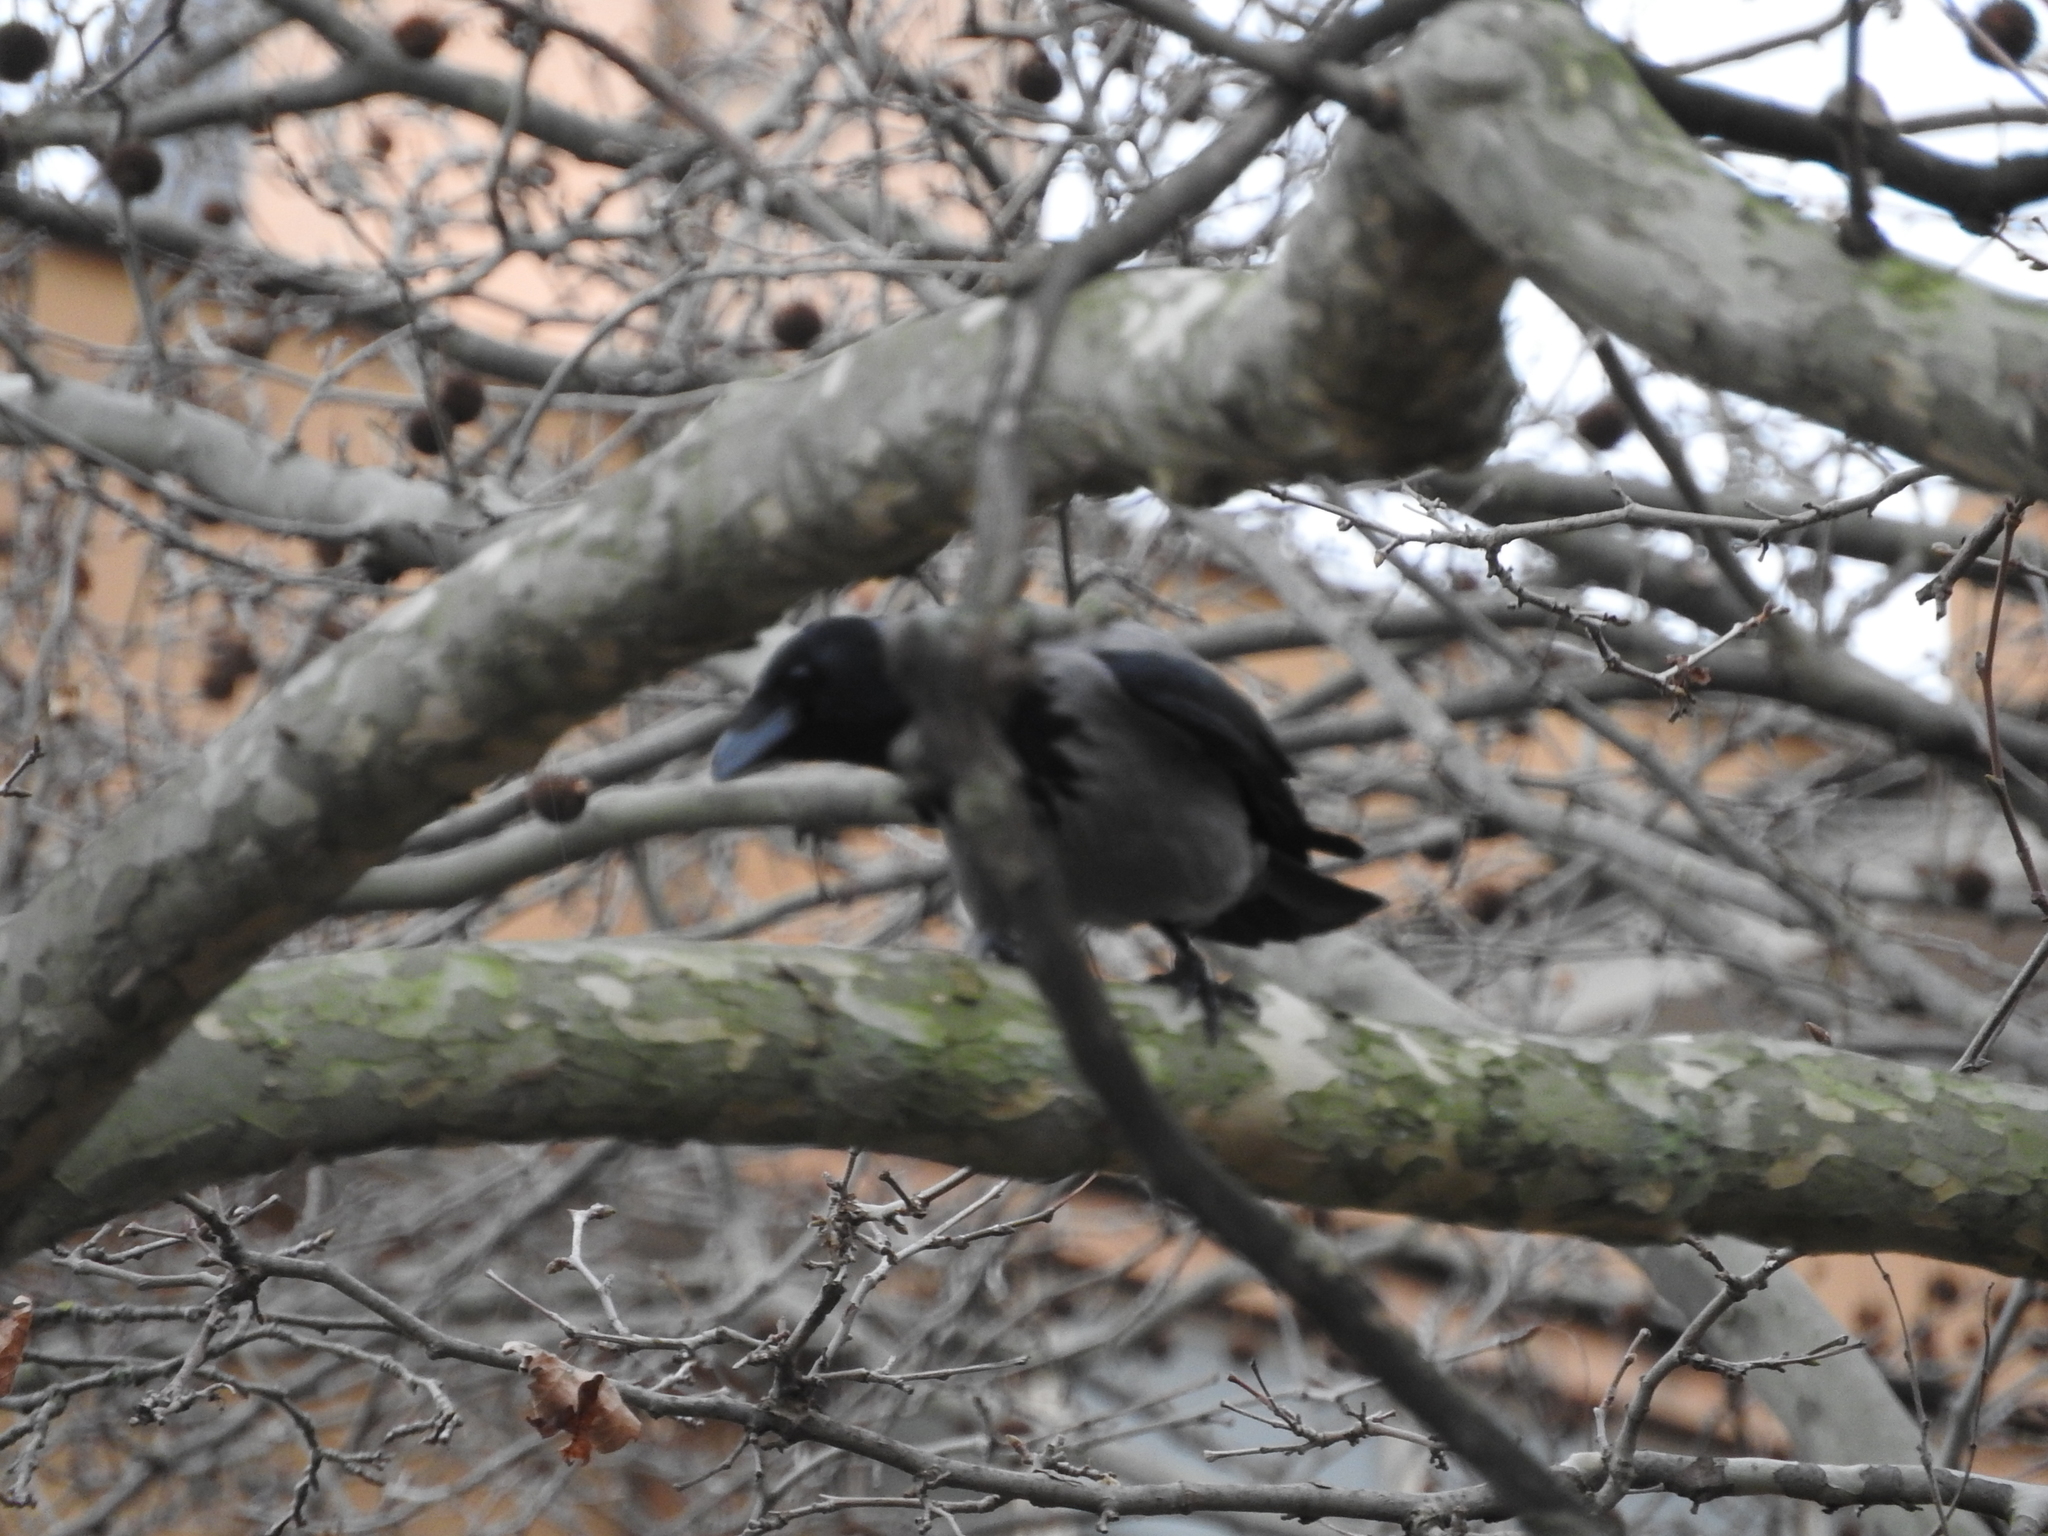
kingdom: Animalia
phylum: Chordata
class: Aves
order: Passeriformes
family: Corvidae
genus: Corvus
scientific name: Corvus cornix
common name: Hooded crow
